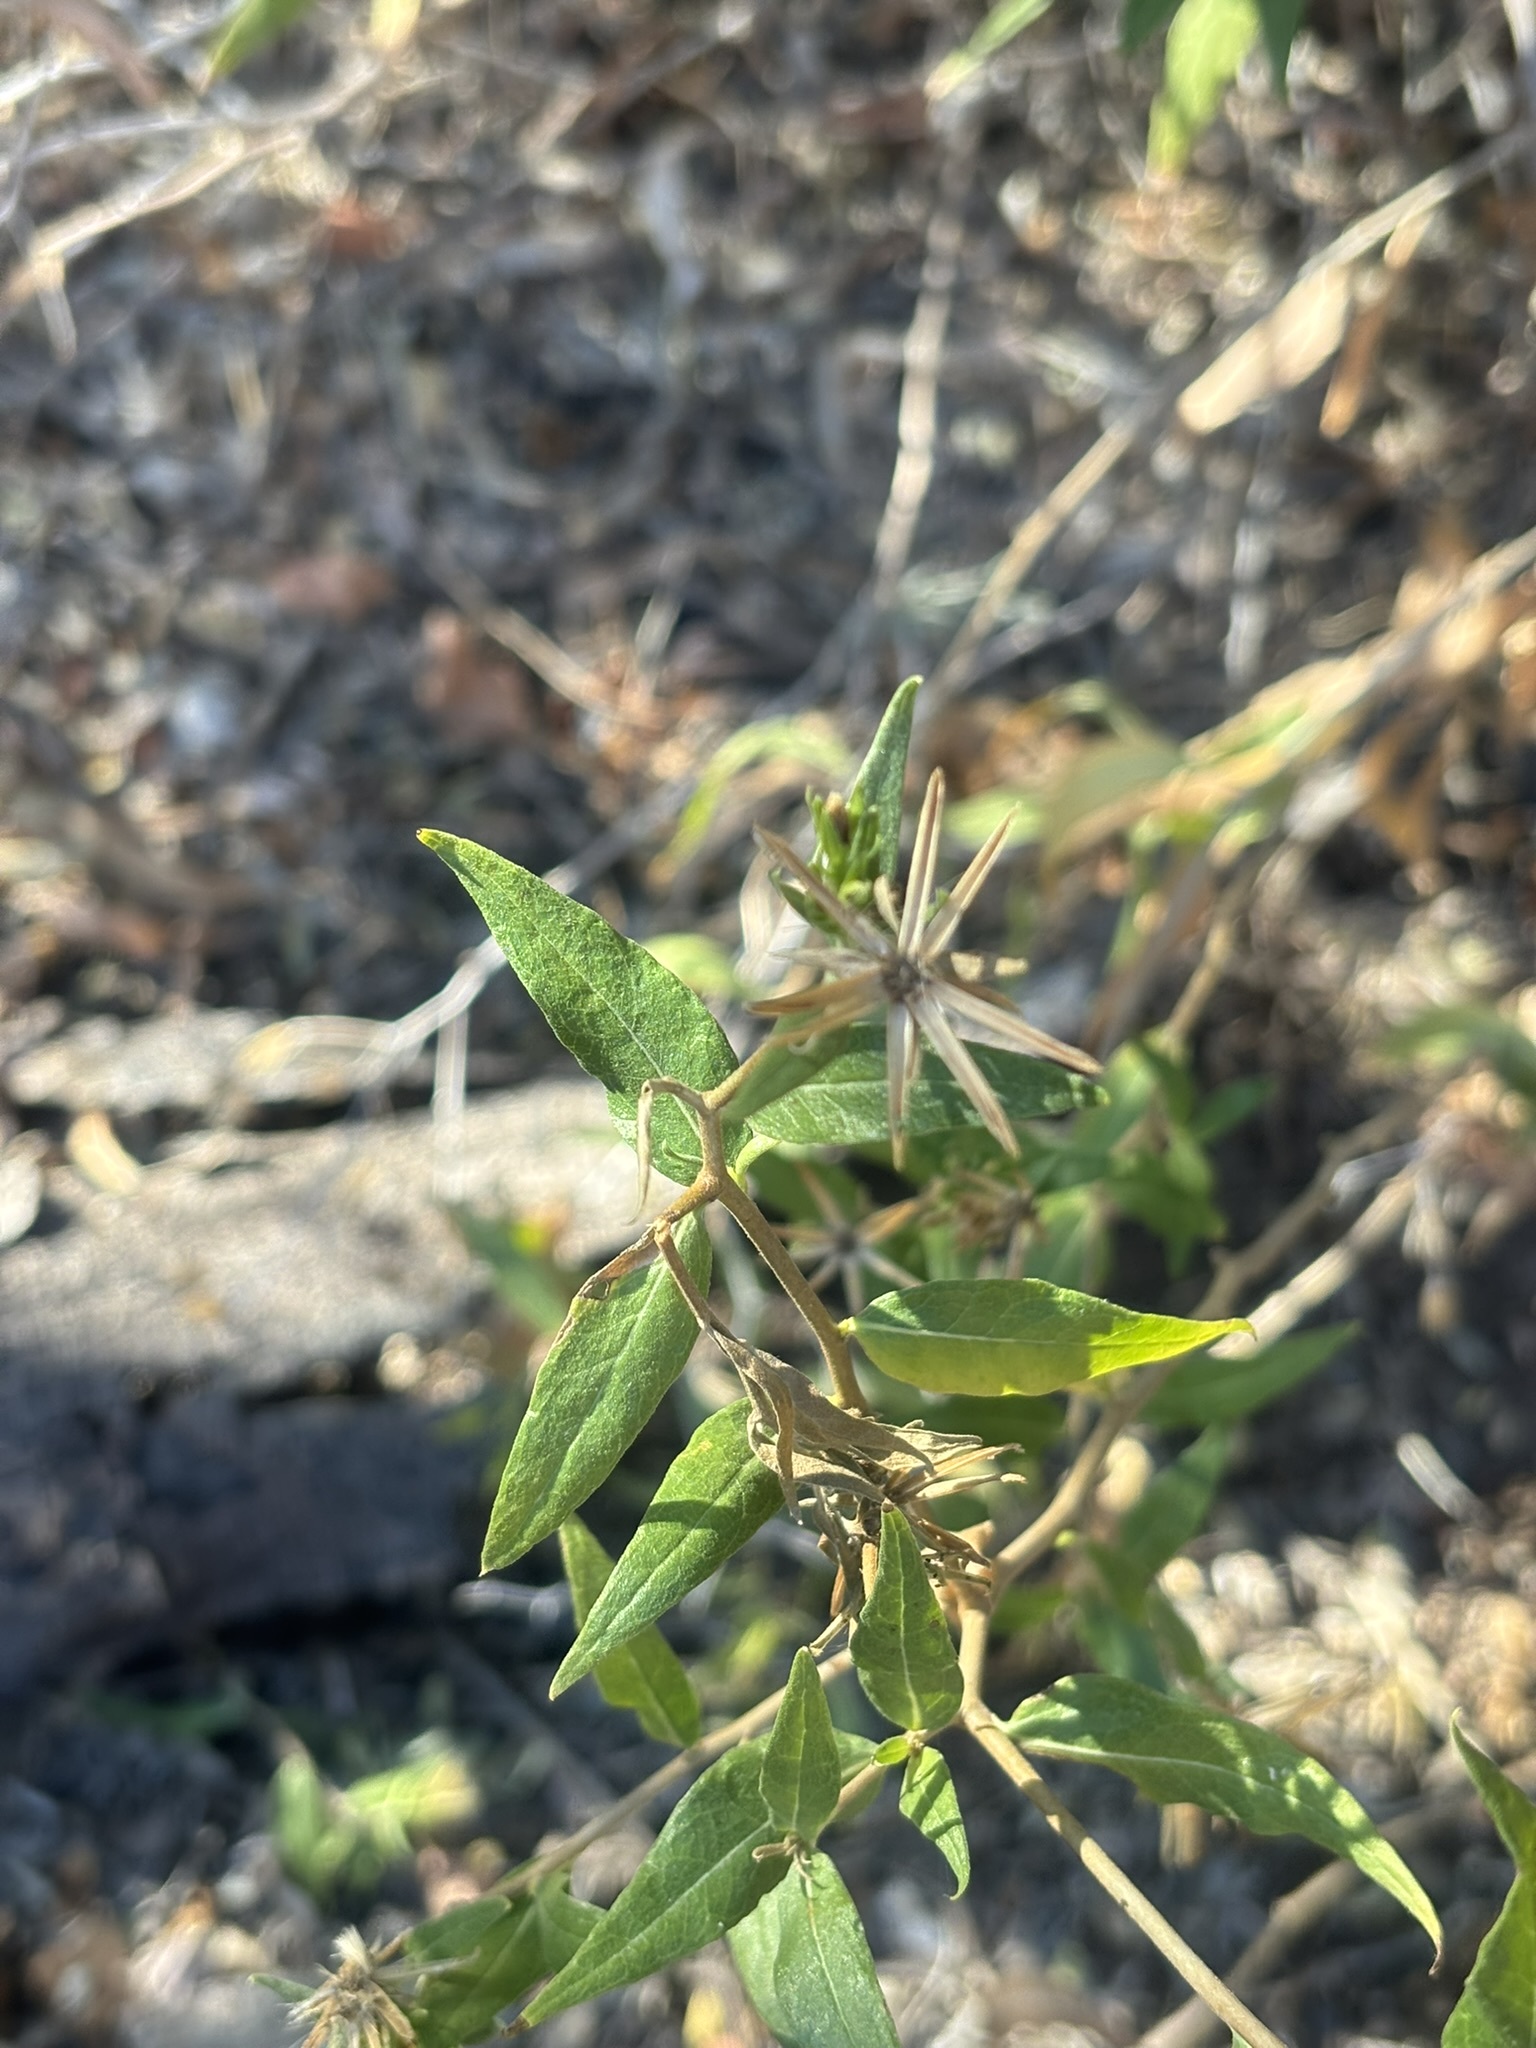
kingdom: Plantae
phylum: Tracheophyta
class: Magnoliopsida
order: Asterales
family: Asteraceae
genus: Trixis
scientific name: Trixis californica
